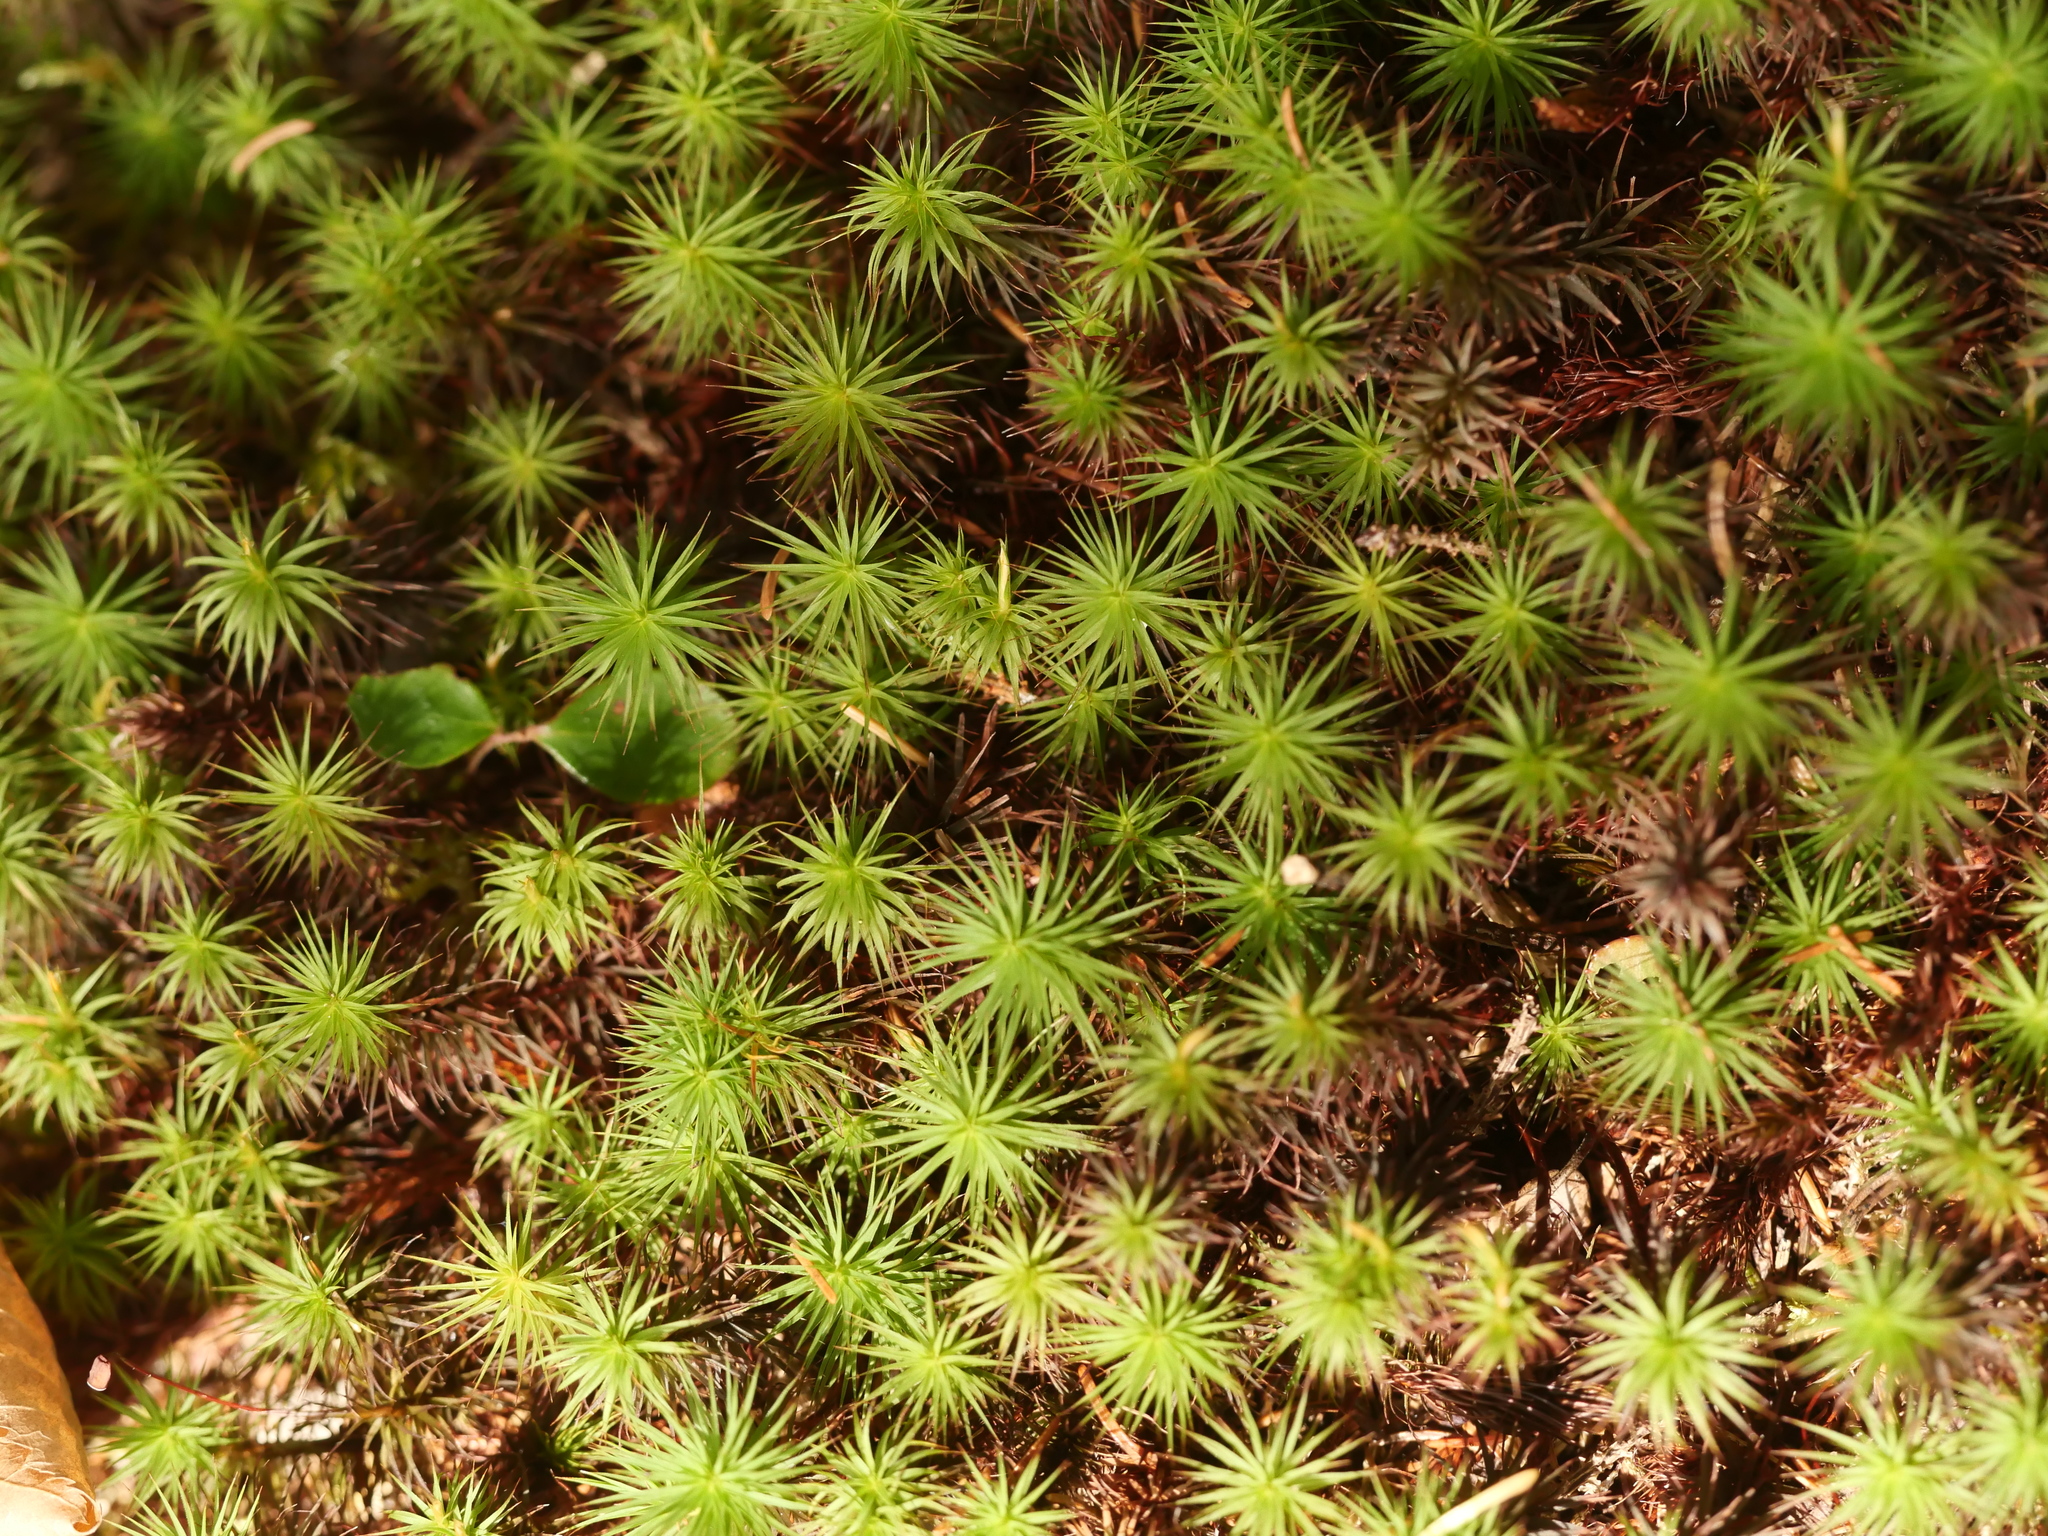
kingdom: Plantae
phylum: Bryophyta
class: Polytrichopsida
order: Polytrichales
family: Polytrichaceae
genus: Polytrichum
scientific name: Polytrichum commune
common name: Common haircap
